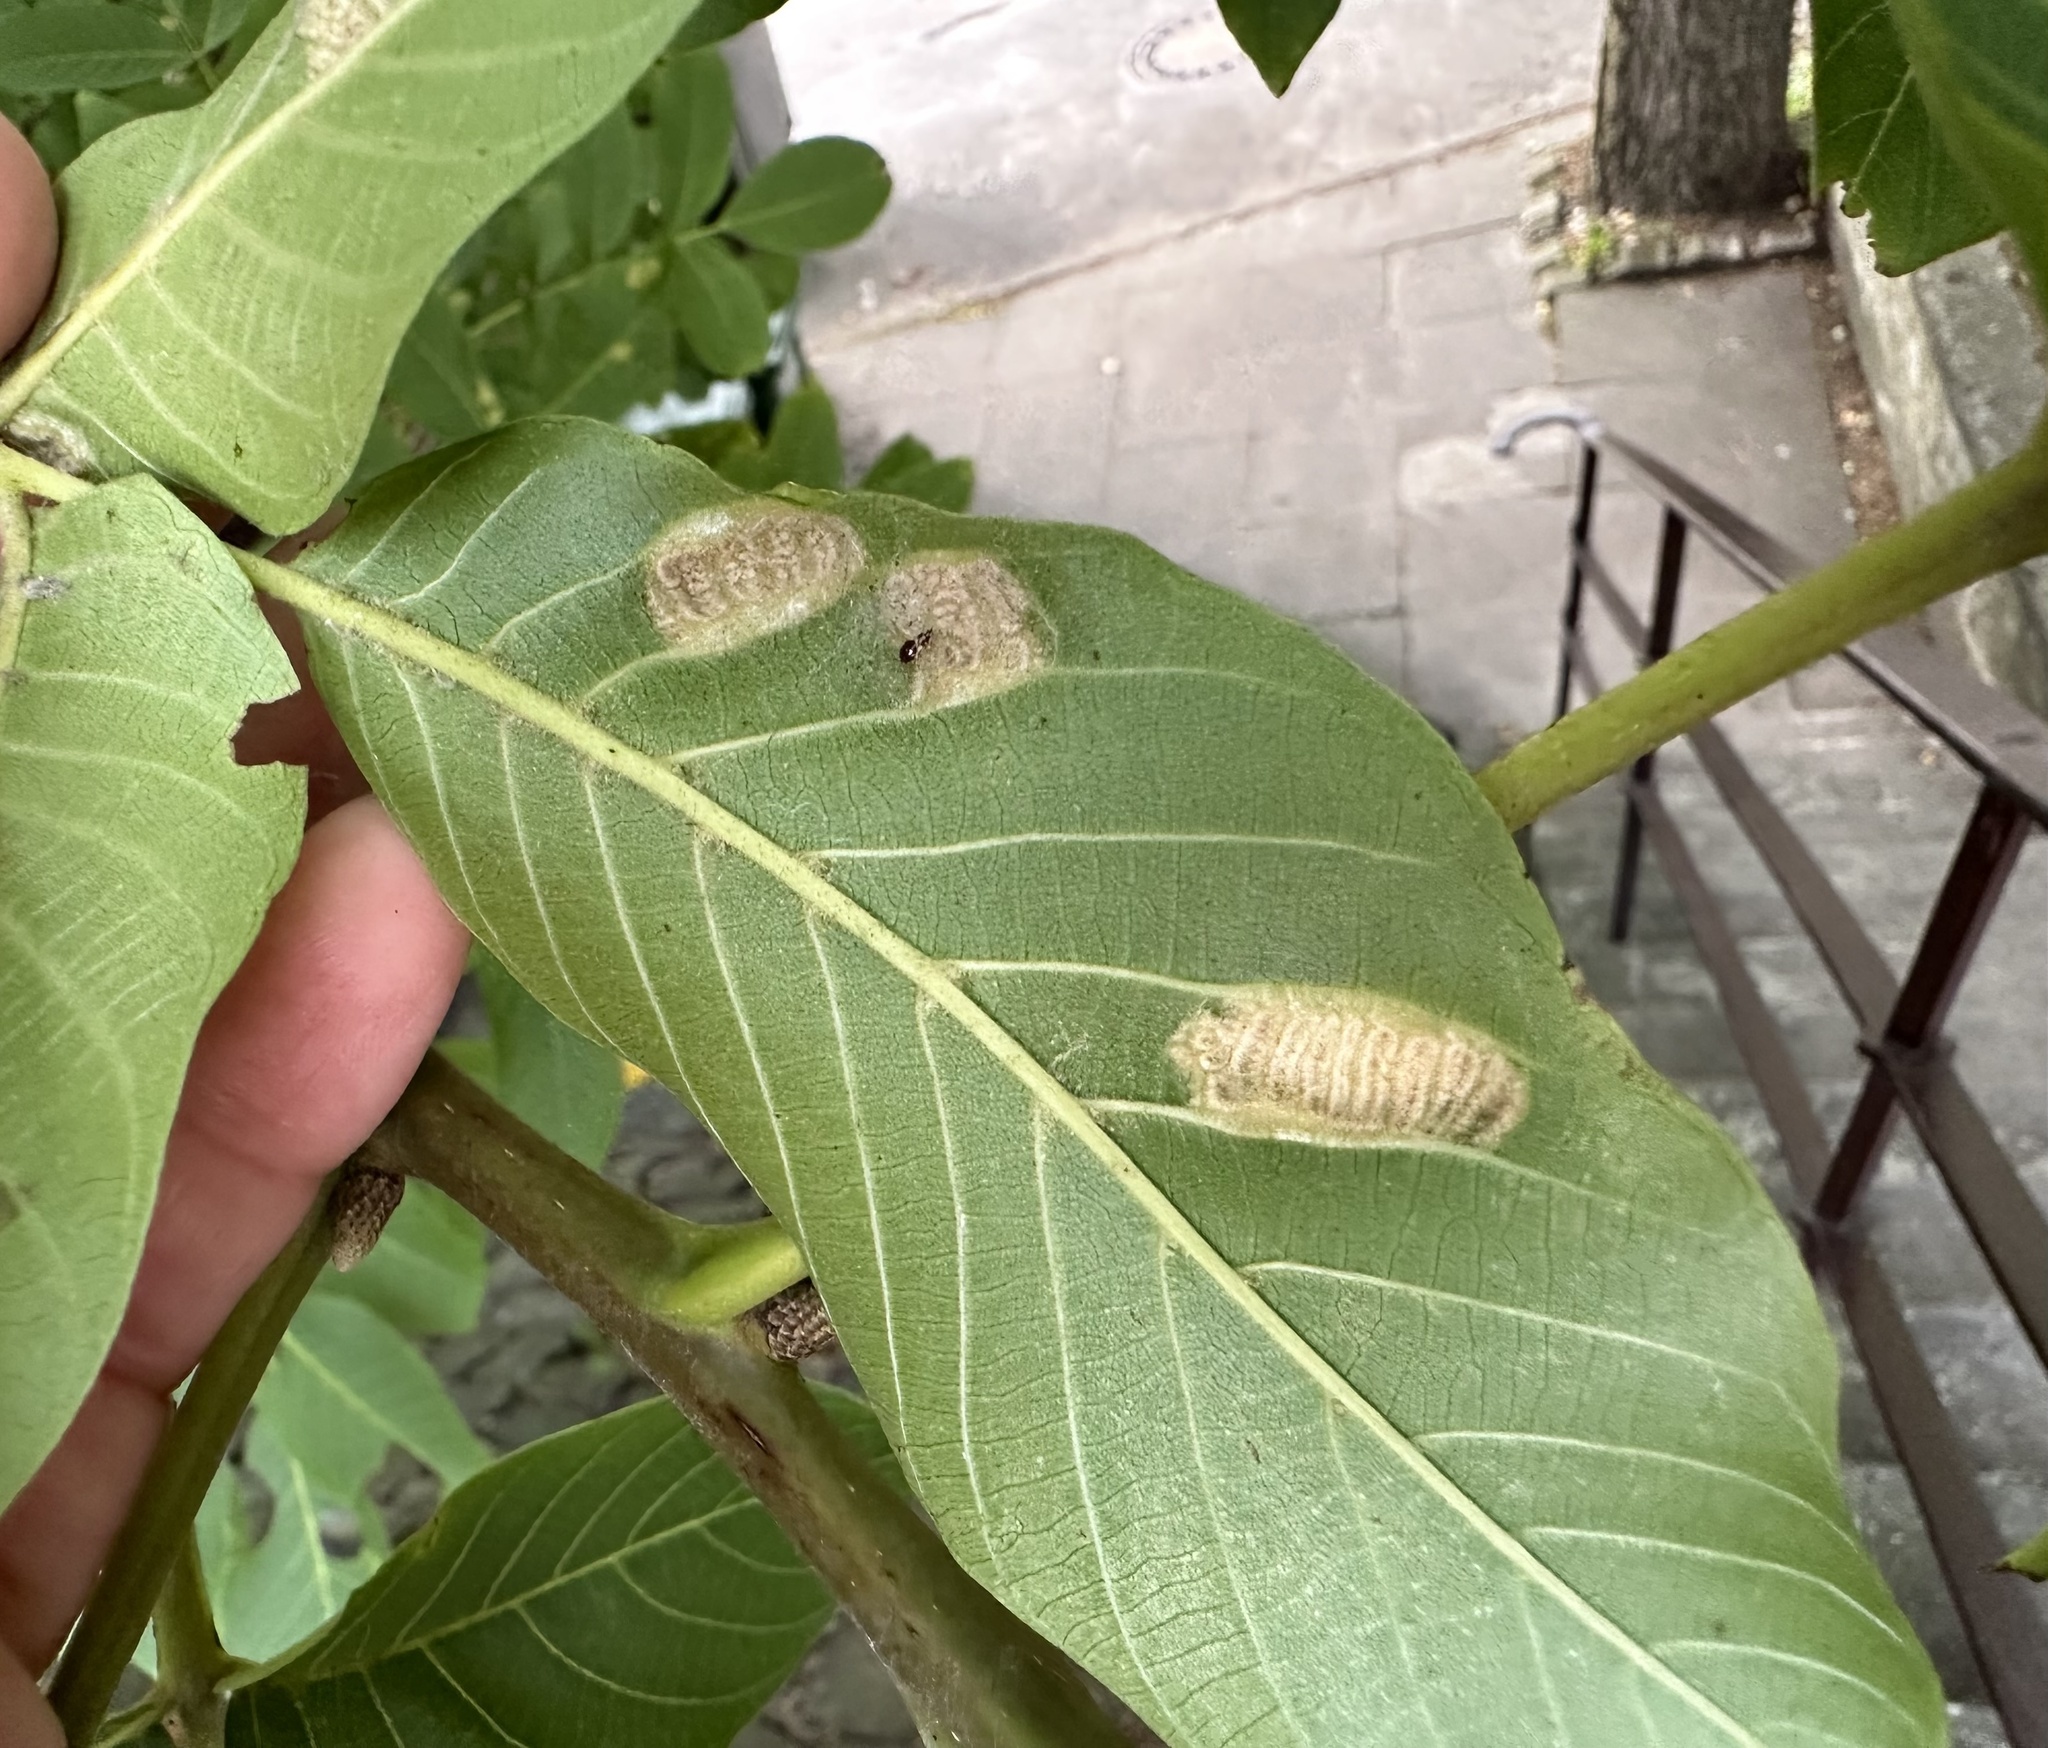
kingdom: Animalia
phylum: Arthropoda
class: Arachnida
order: Trombidiformes
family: Eriophyidae
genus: Aceria
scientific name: Aceria erinea
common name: Persian walnut erineum mite
